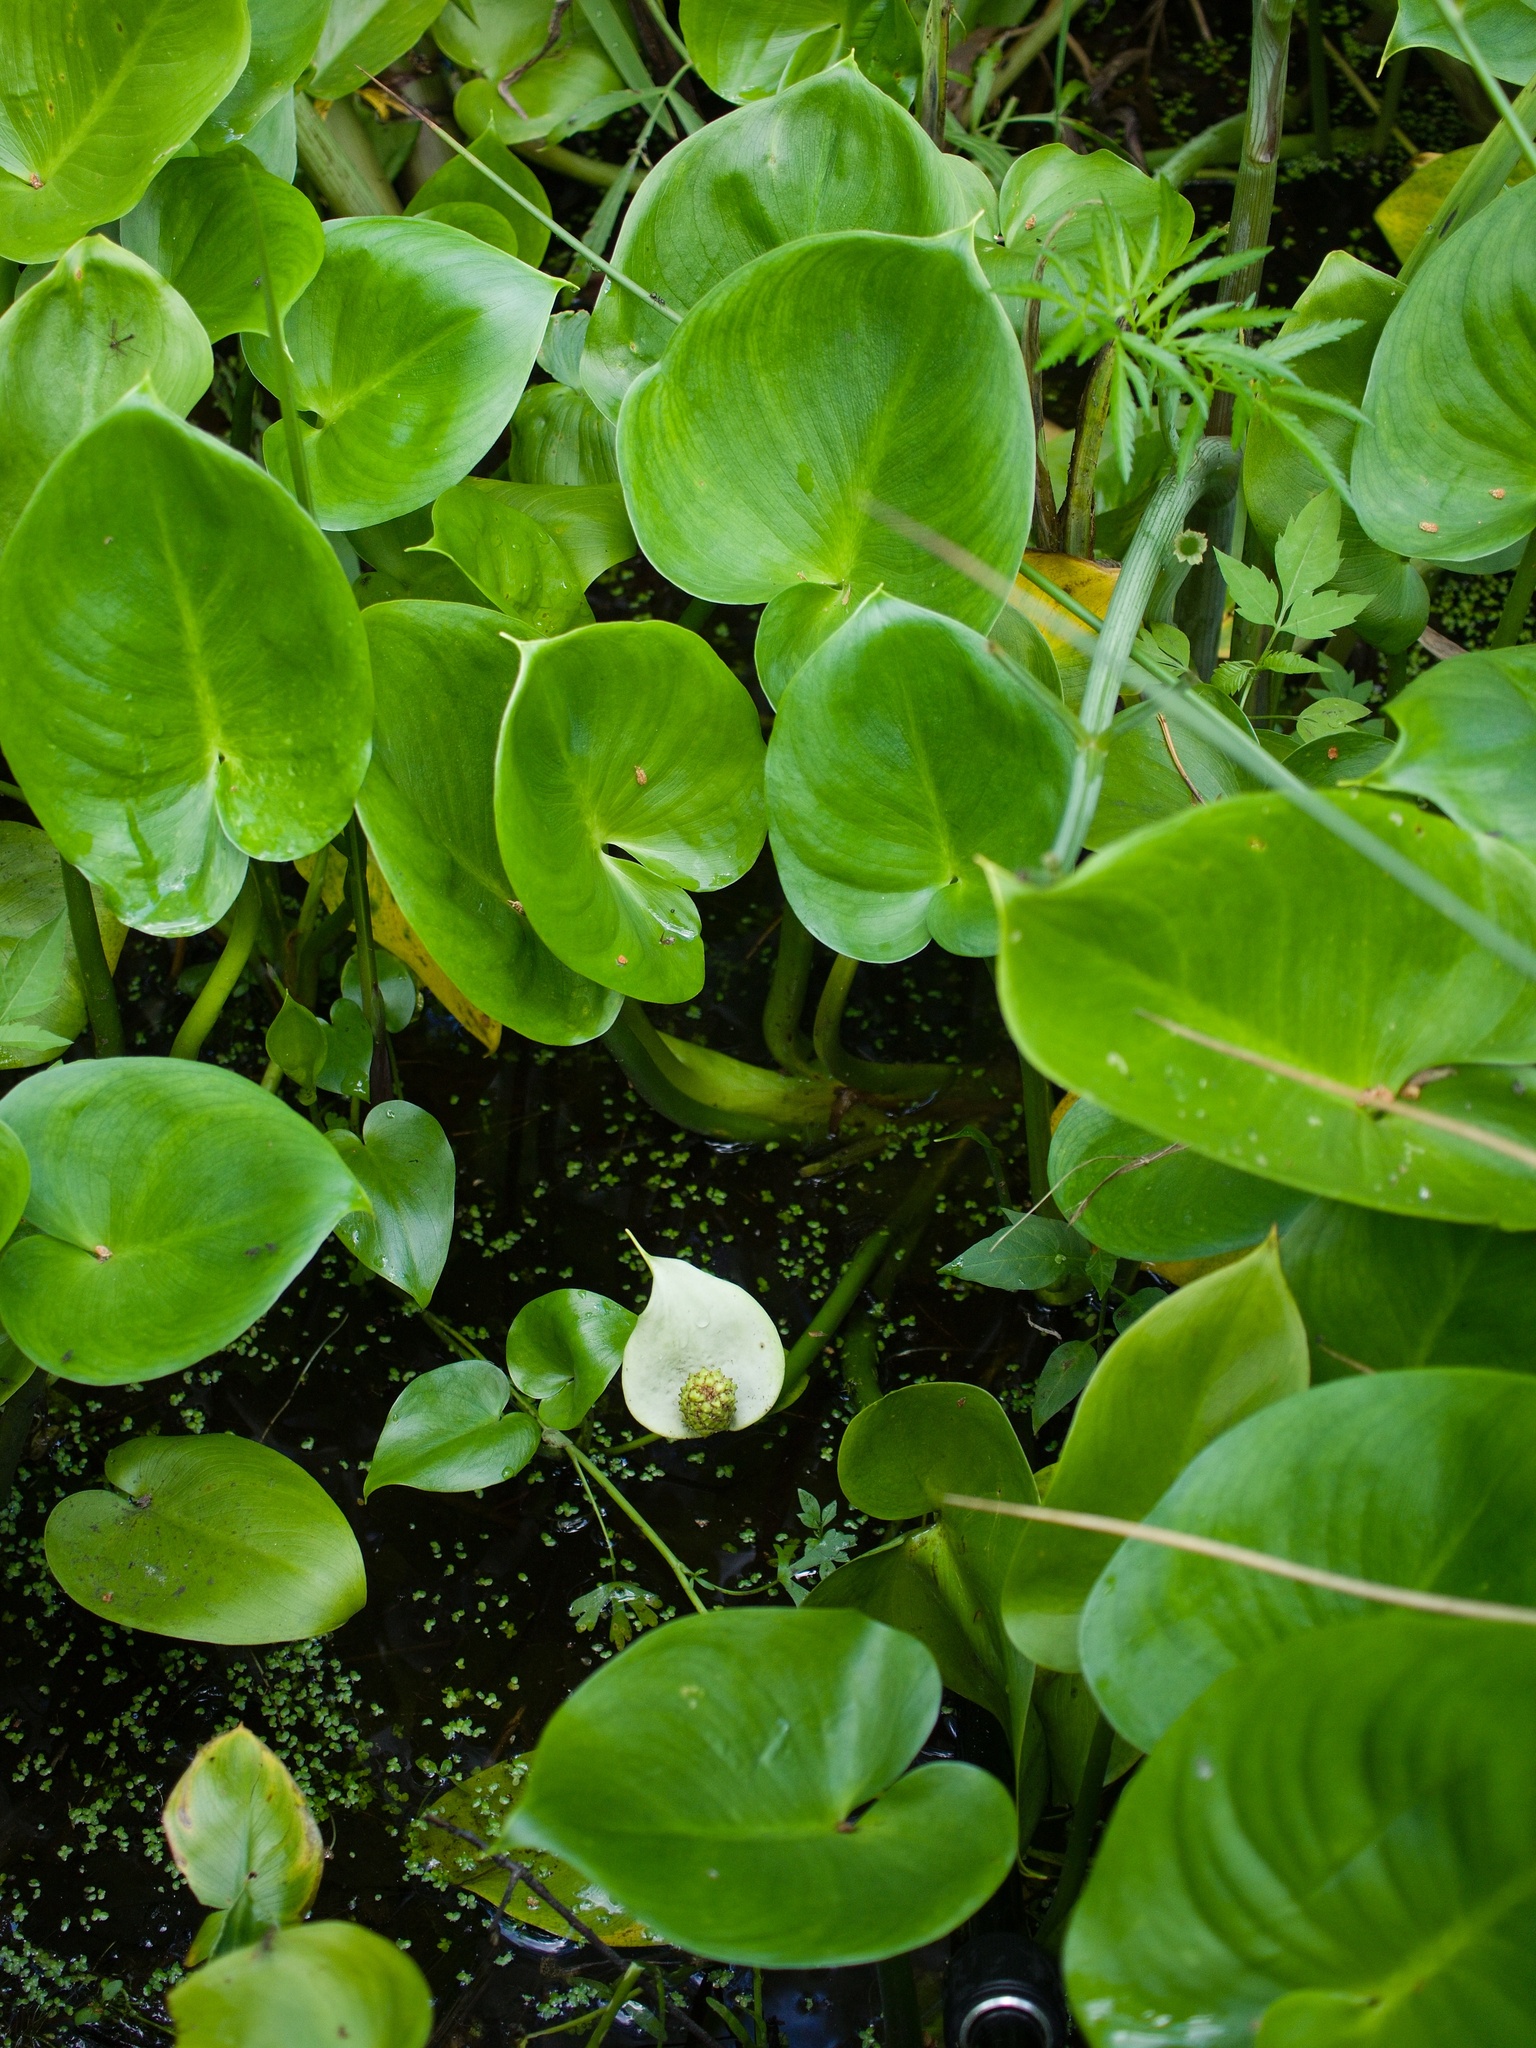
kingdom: Plantae
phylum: Tracheophyta
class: Liliopsida
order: Alismatales
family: Araceae
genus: Calla
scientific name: Calla palustris
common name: Bog arum
